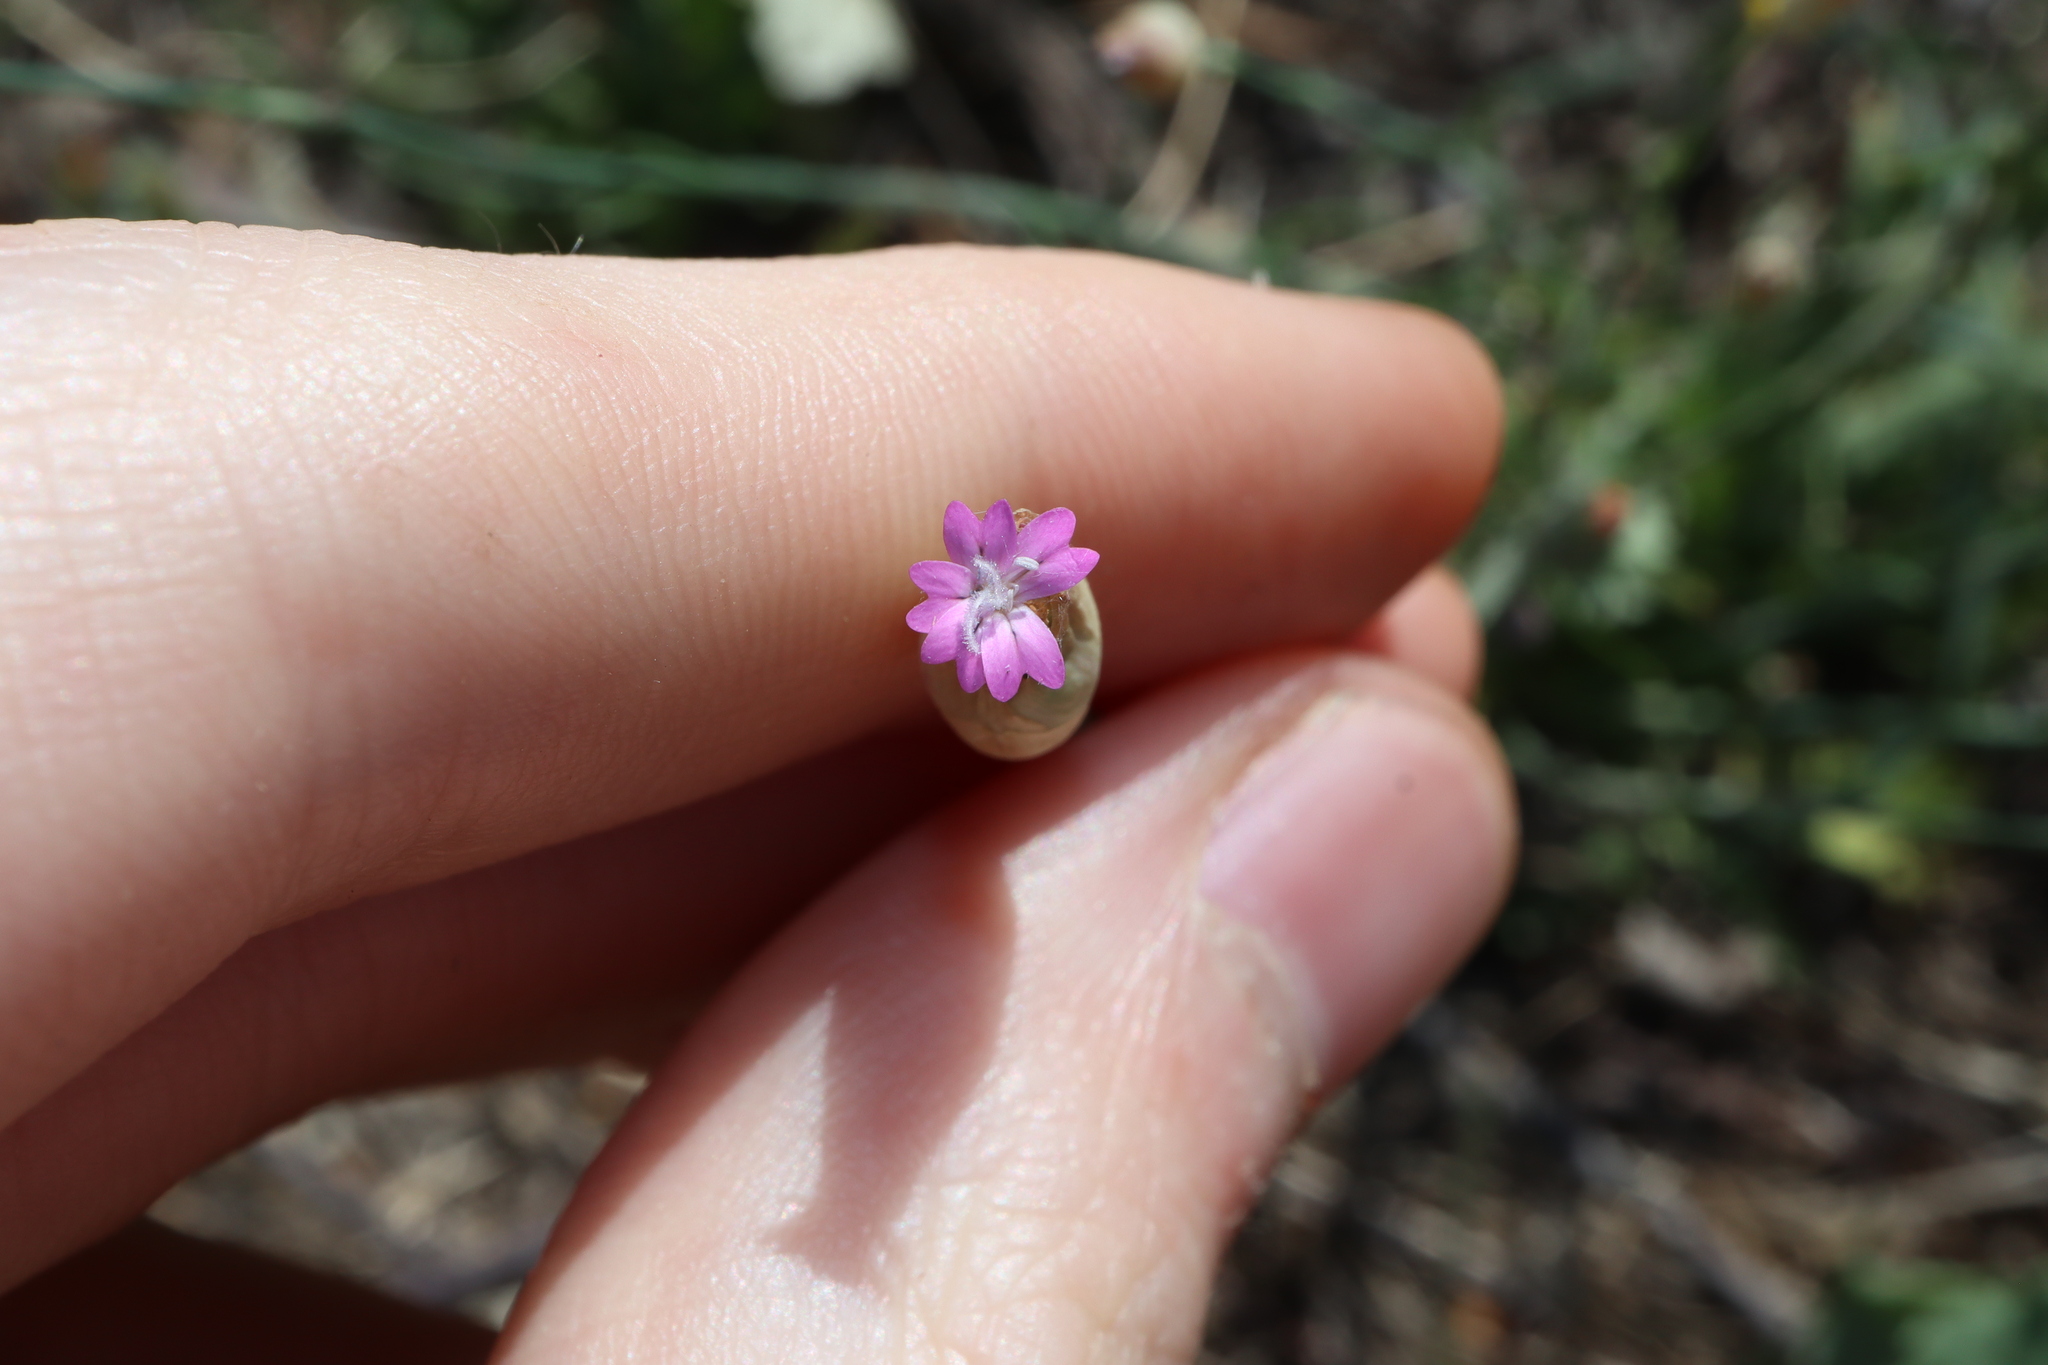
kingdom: Plantae
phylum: Tracheophyta
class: Magnoliopsida
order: Caryophyllales
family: Caryophyllaceae
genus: Petrorhagia
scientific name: Petrorhagia dubia
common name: Hairypink
